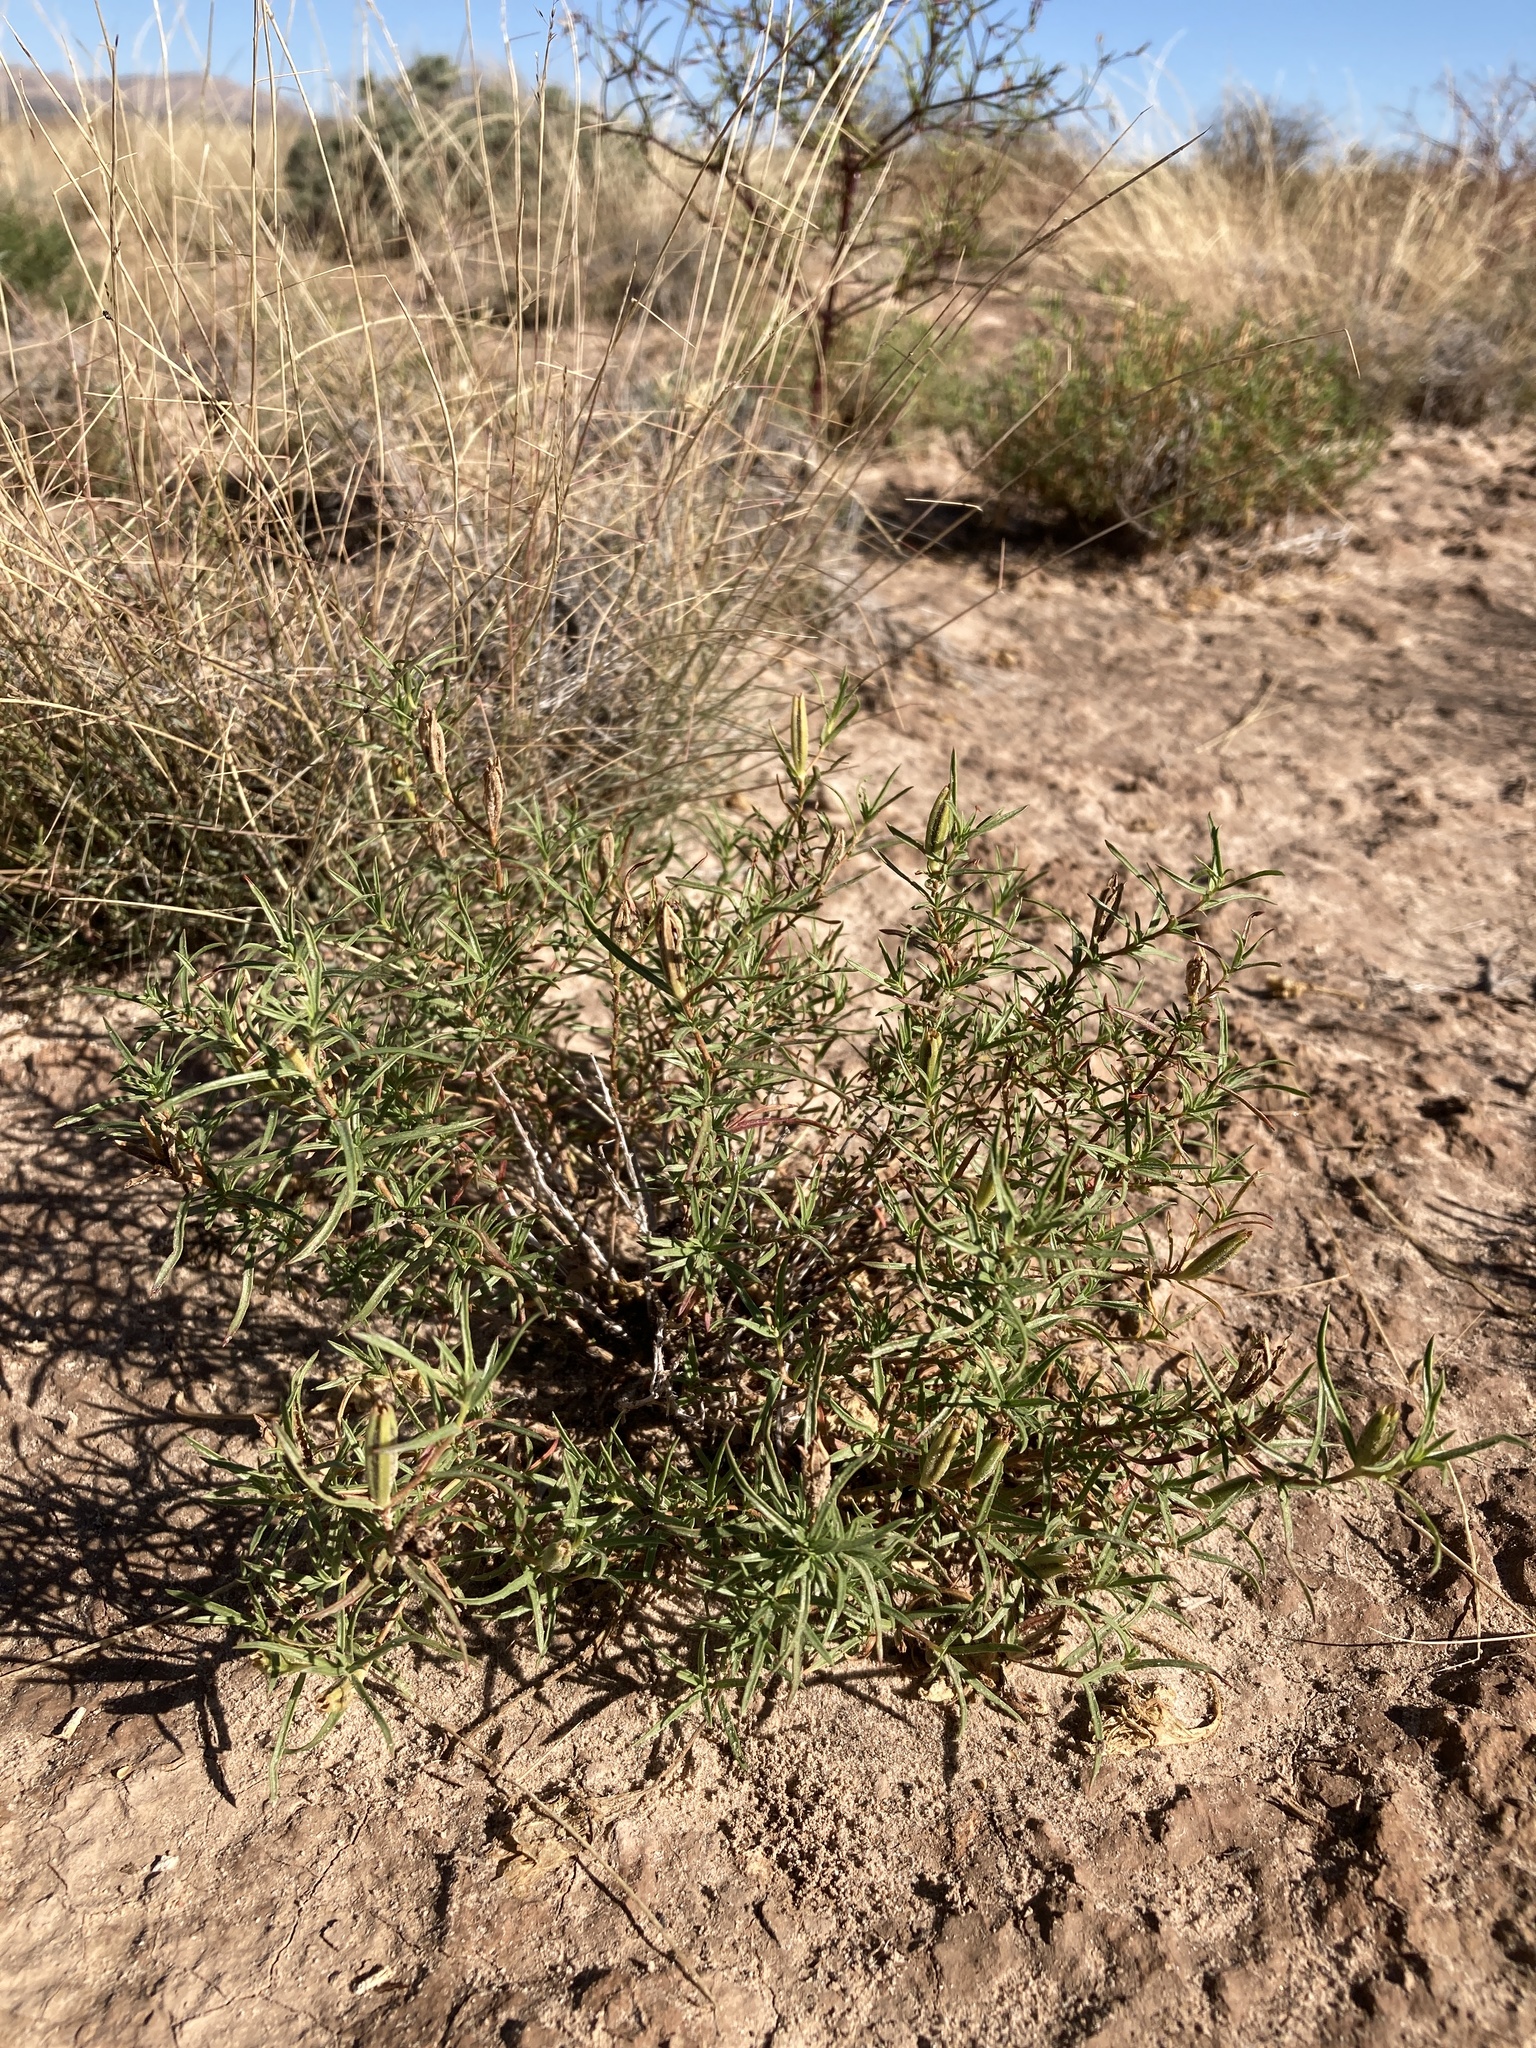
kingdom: Plantae
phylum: Tracheophyta
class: Magnoliopsida
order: Myrtales
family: Onagraceae
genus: Oenothera
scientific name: Oenothera hartwegii
